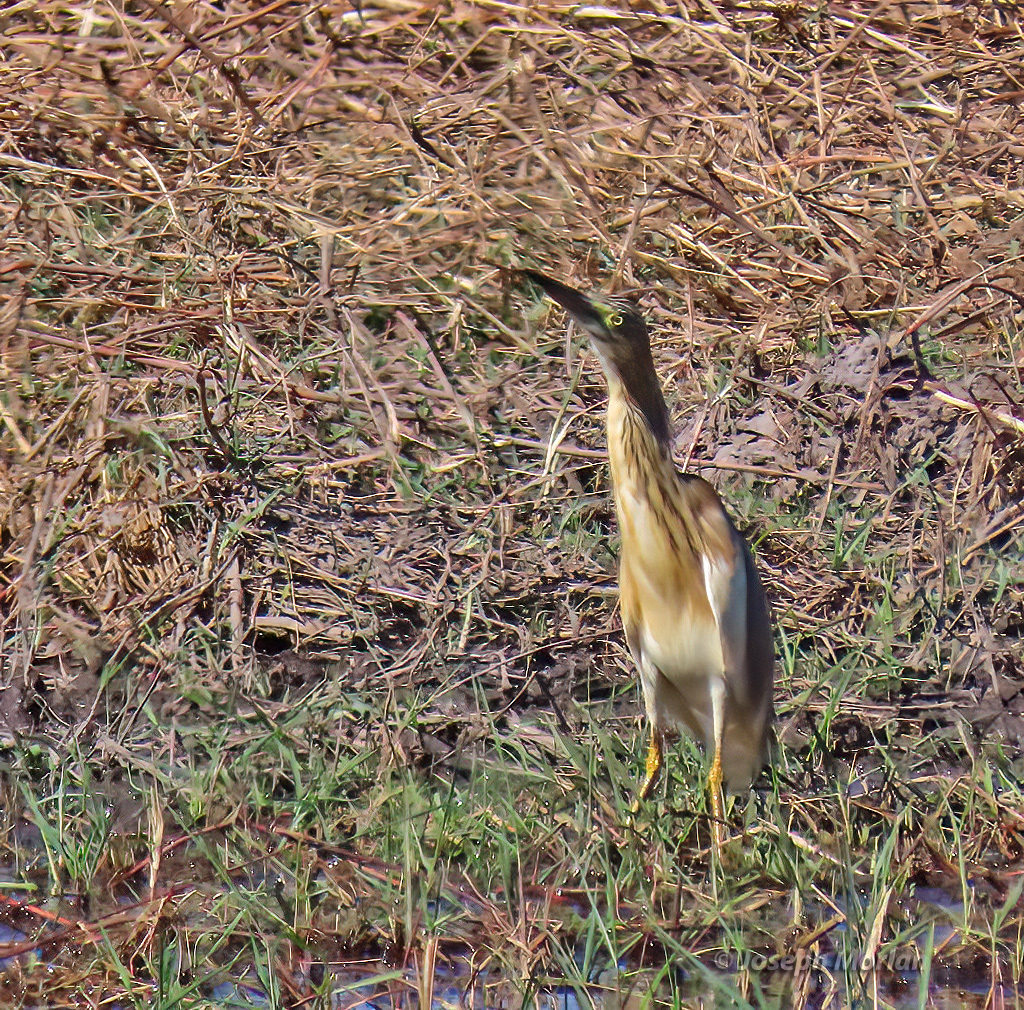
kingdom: Animalia
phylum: Chordata
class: Aves
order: Pelecaniformes
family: Ardeidae
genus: Ardeola
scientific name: Ardeola ralloides
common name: Squacco heron
